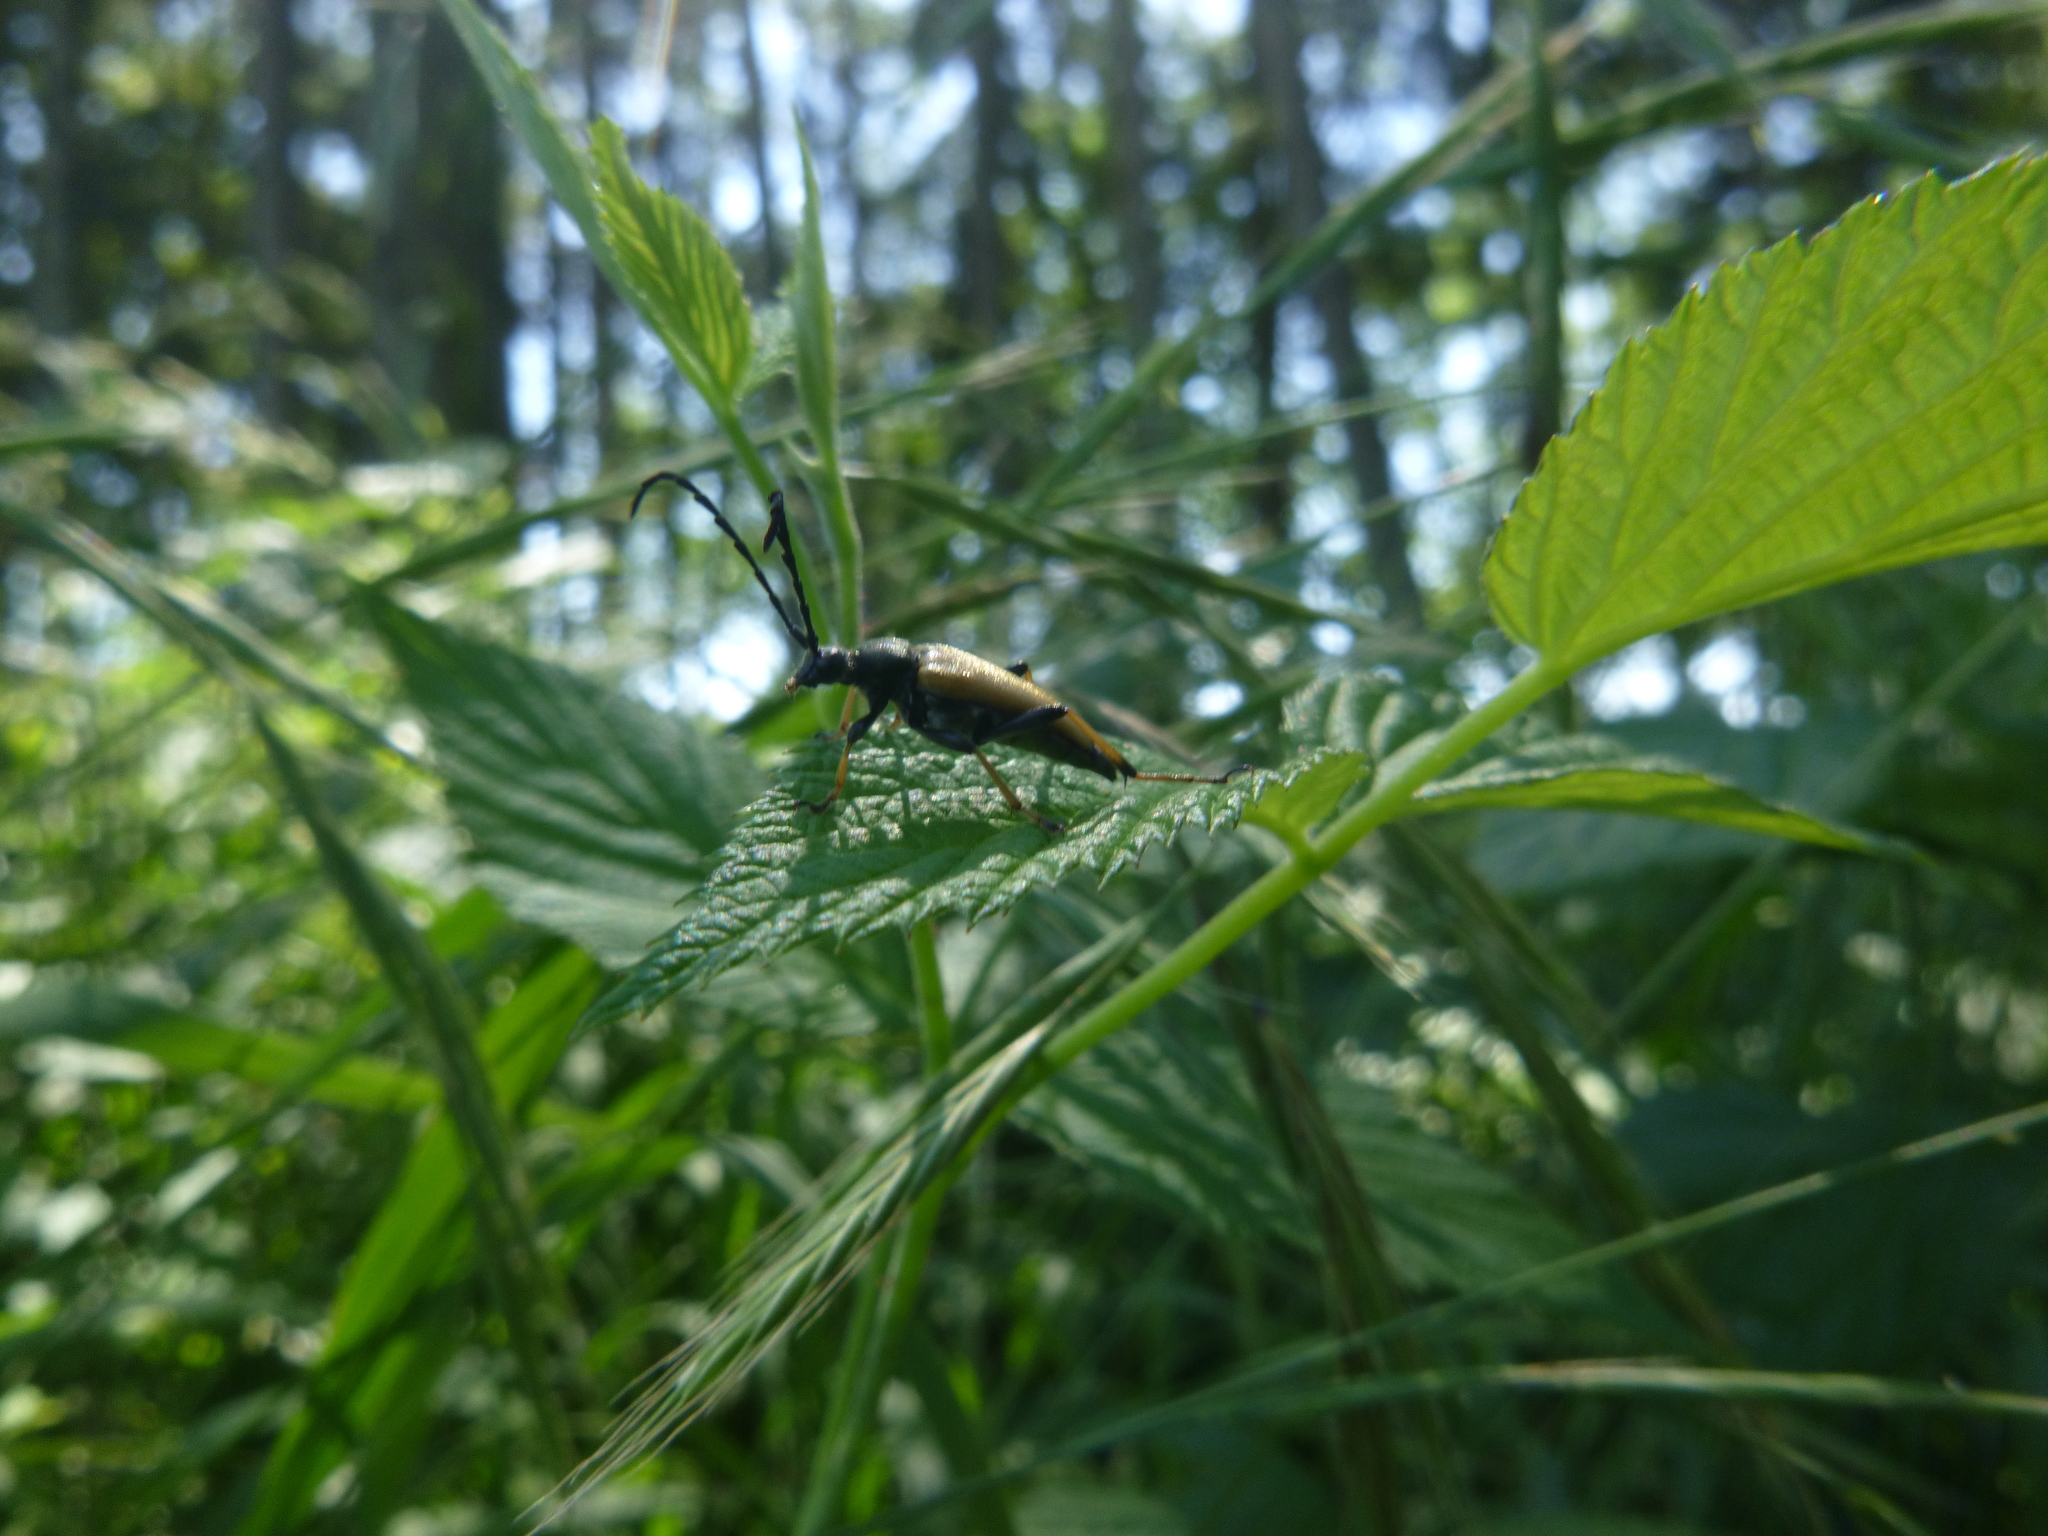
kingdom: Animalia
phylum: Arthropoda
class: Insecta
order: Coleoptera
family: Cerambycidae
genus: Stictoleptura
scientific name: Stictoleptura rubra
